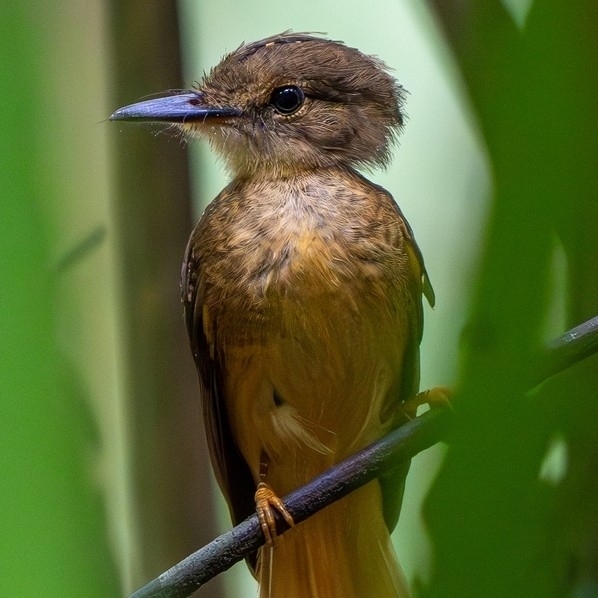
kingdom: Animalia
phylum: Chordata
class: Aves
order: Passeriformes
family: Tyrannidae
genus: Onychorhynchus
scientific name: Onychorhynchus coronatus
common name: Royal flycatcher
